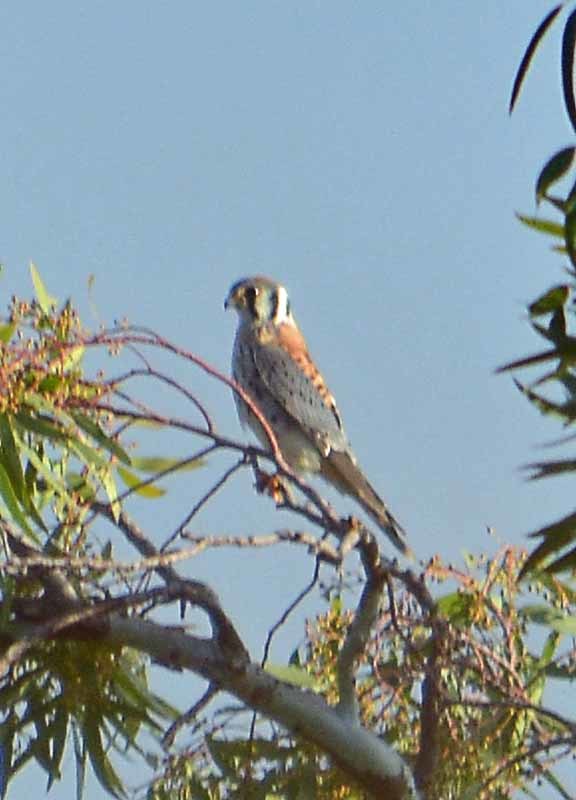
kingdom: Animalia
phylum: Chordata
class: Aves
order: Falconiformes
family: Falconidae
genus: Falco
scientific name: Falco sparverius
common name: American kestrel
